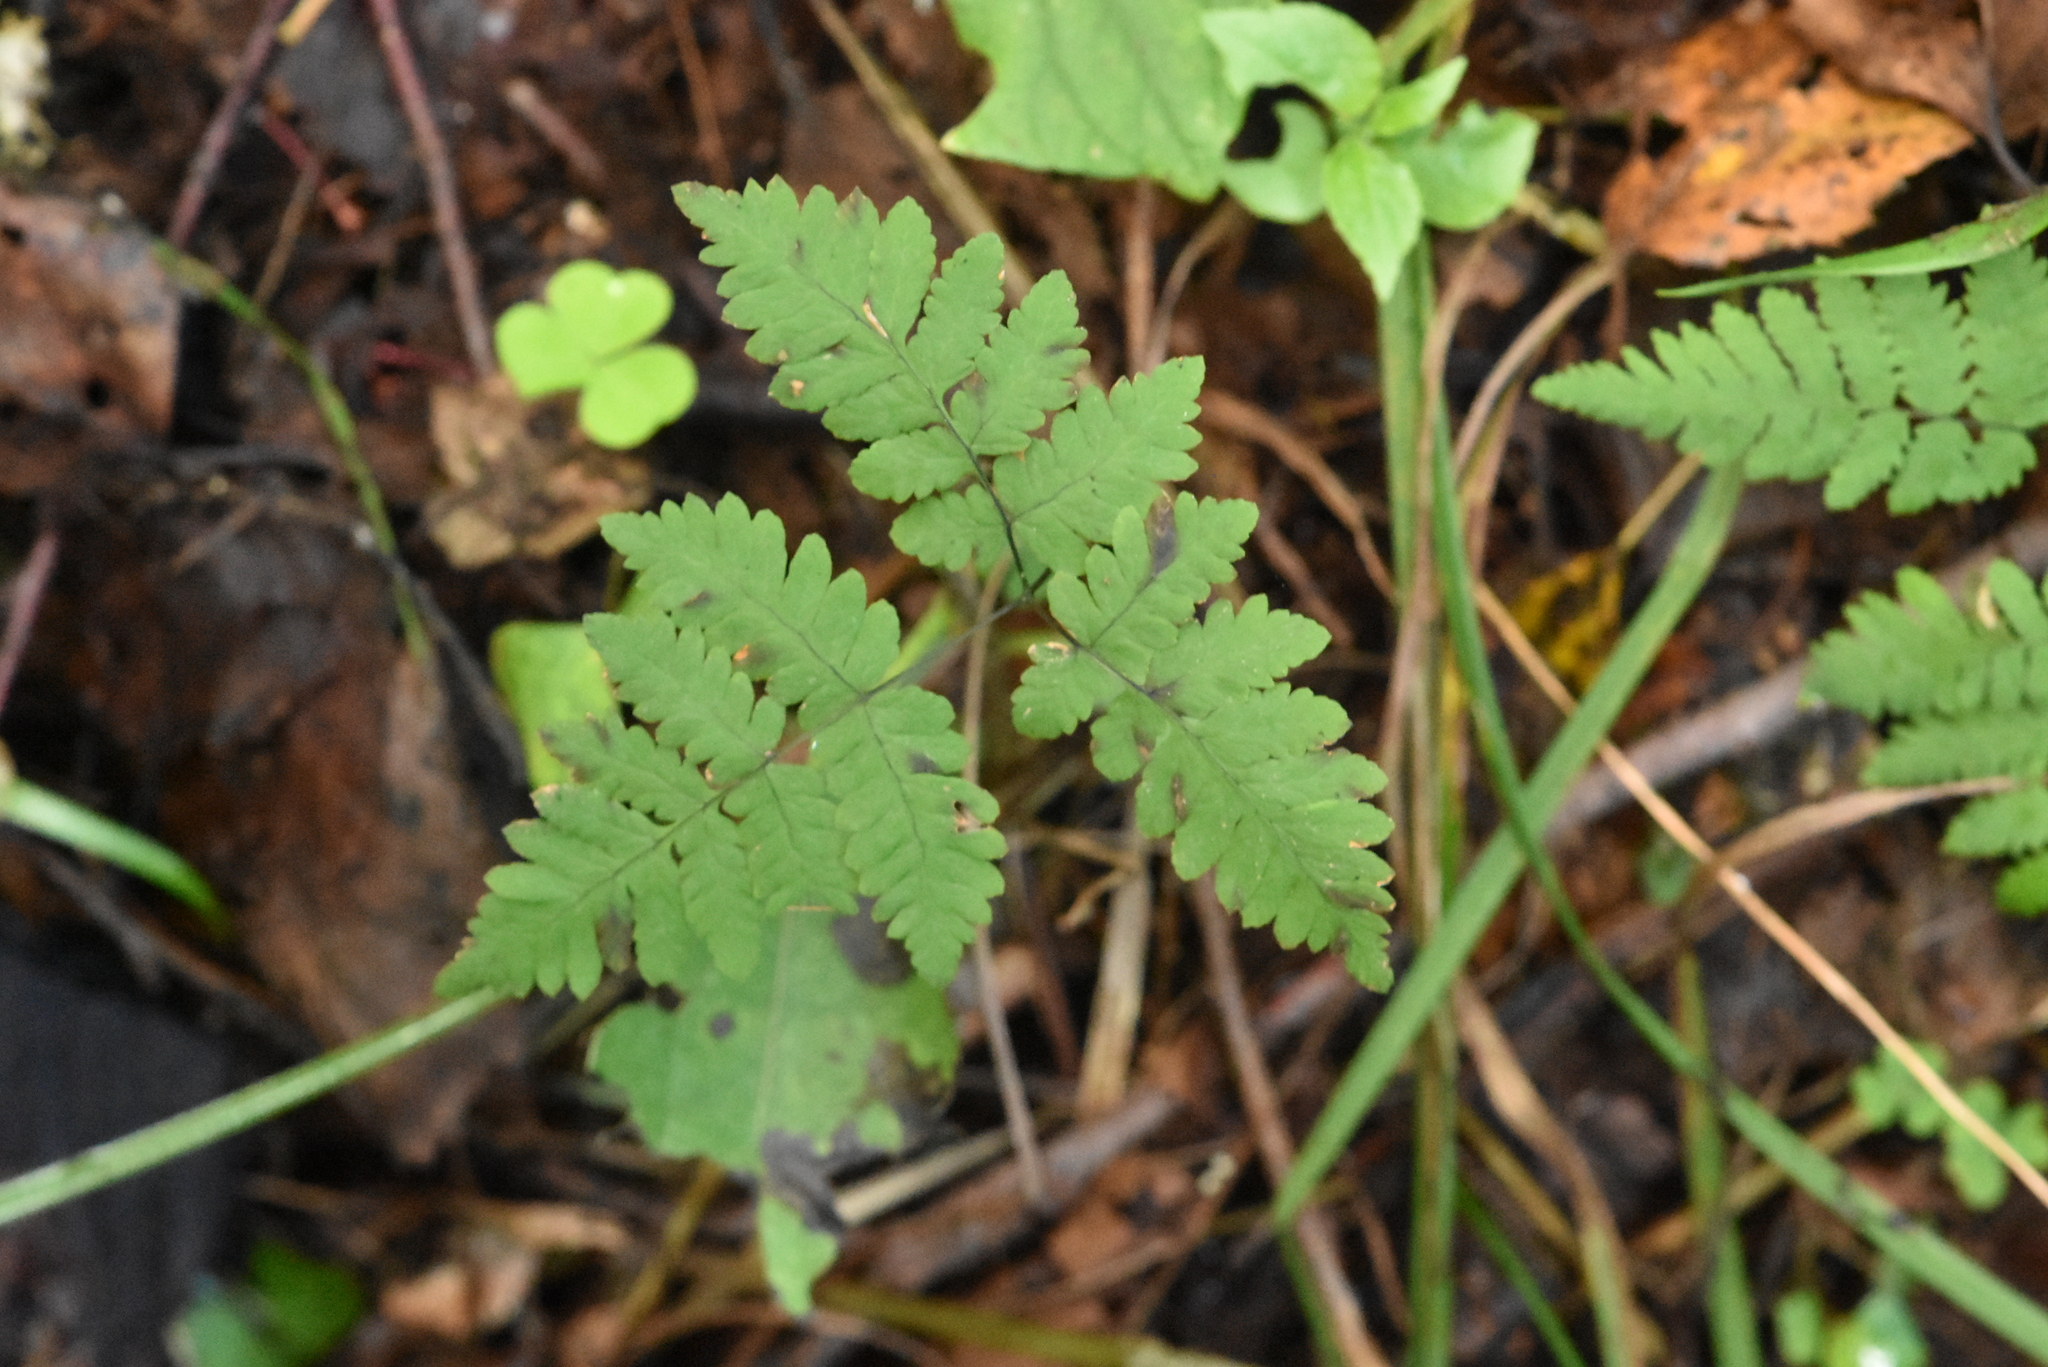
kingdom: Plantae
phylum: Tracheophyta
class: Polypodiopsida
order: Polypodiales
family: Cystopteridaceae
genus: Gymnocarpium
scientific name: Gymnocarpium dryopteris
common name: Oak fern
